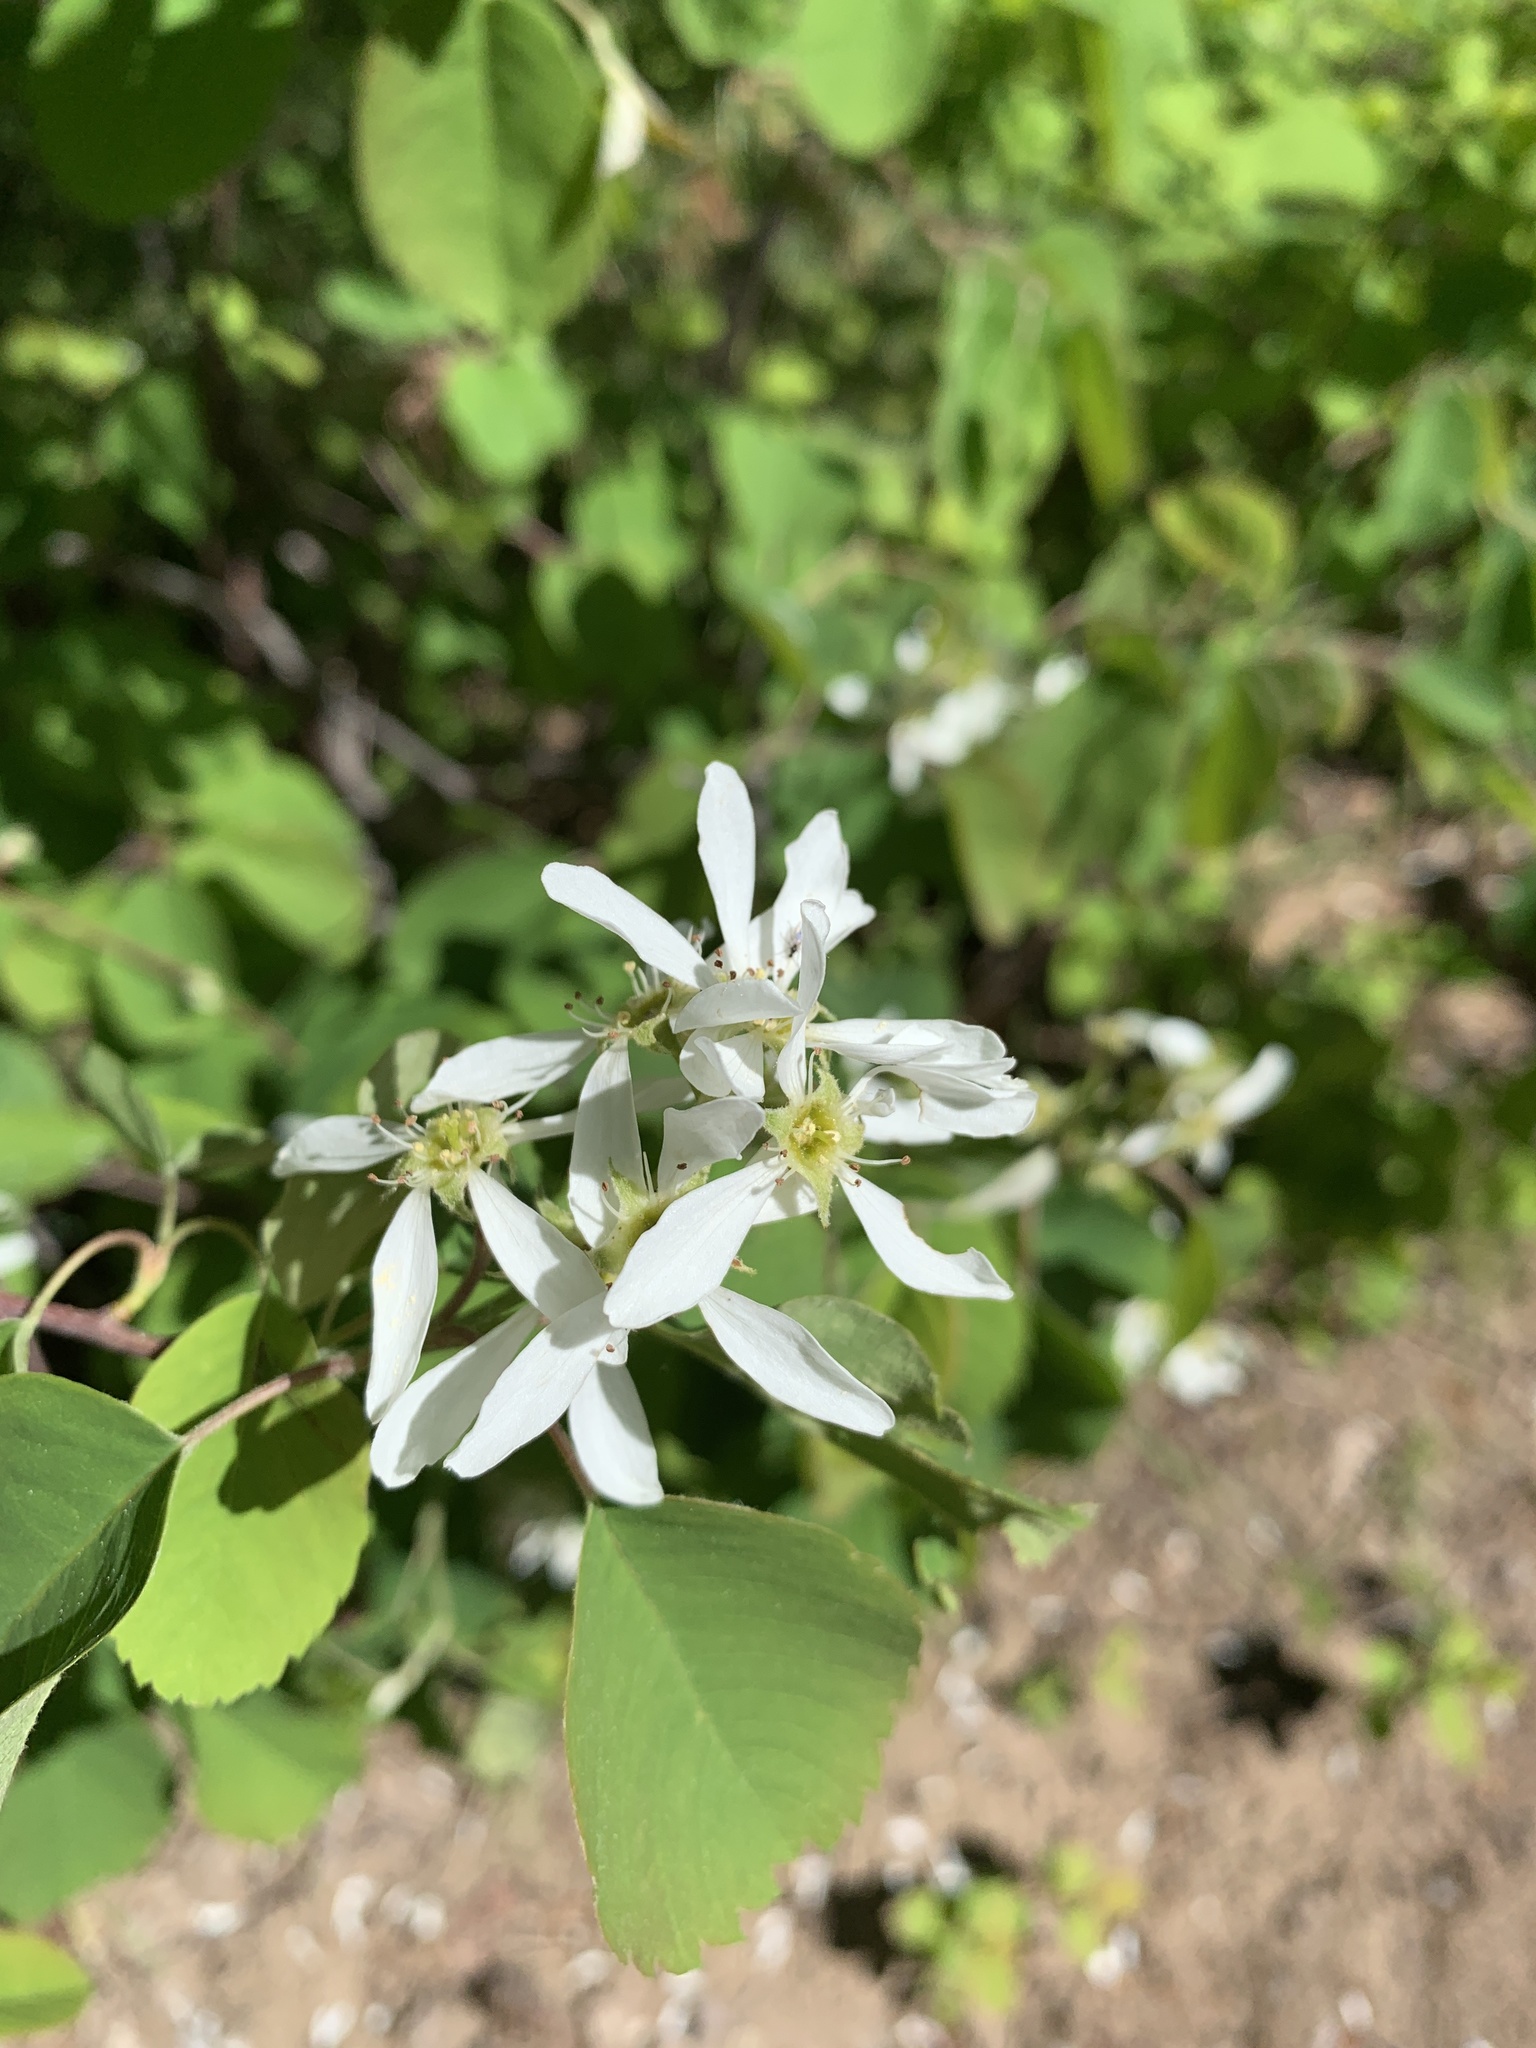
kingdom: Plantae
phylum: Tracheophyta
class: Magnoliopsida
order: Rosales
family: Rosaceae
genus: Amelanchier
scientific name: Amelanchier alnifolia
